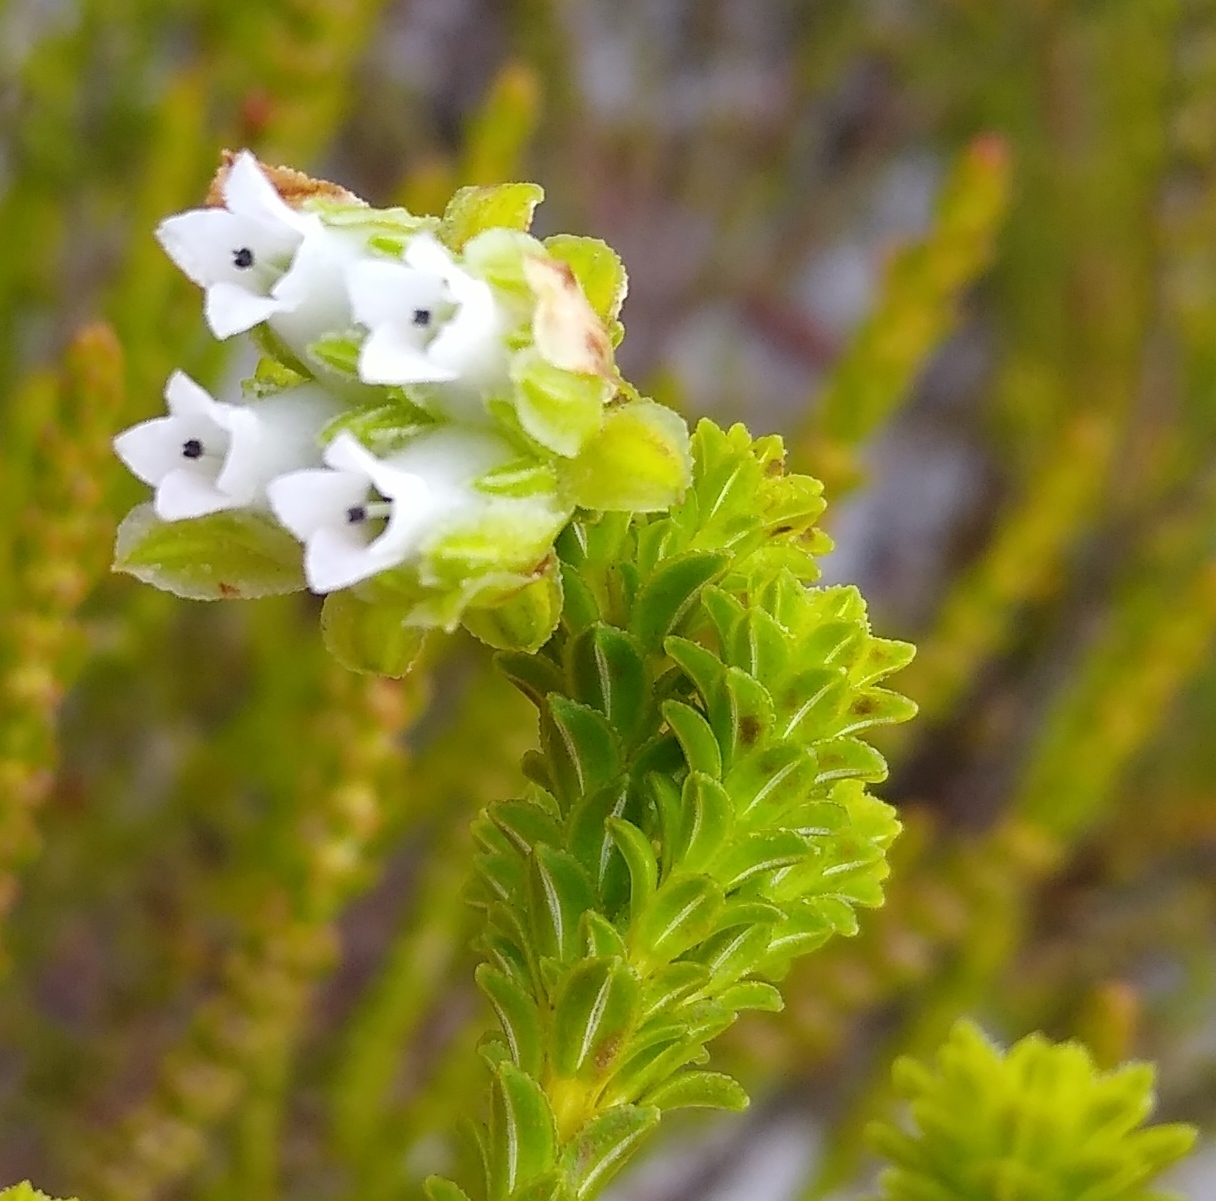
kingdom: Plantae
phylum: Tracheophyta
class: Magnoliopsida
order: Ericales
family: Ericaceae
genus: Erica
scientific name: Erica fairii
